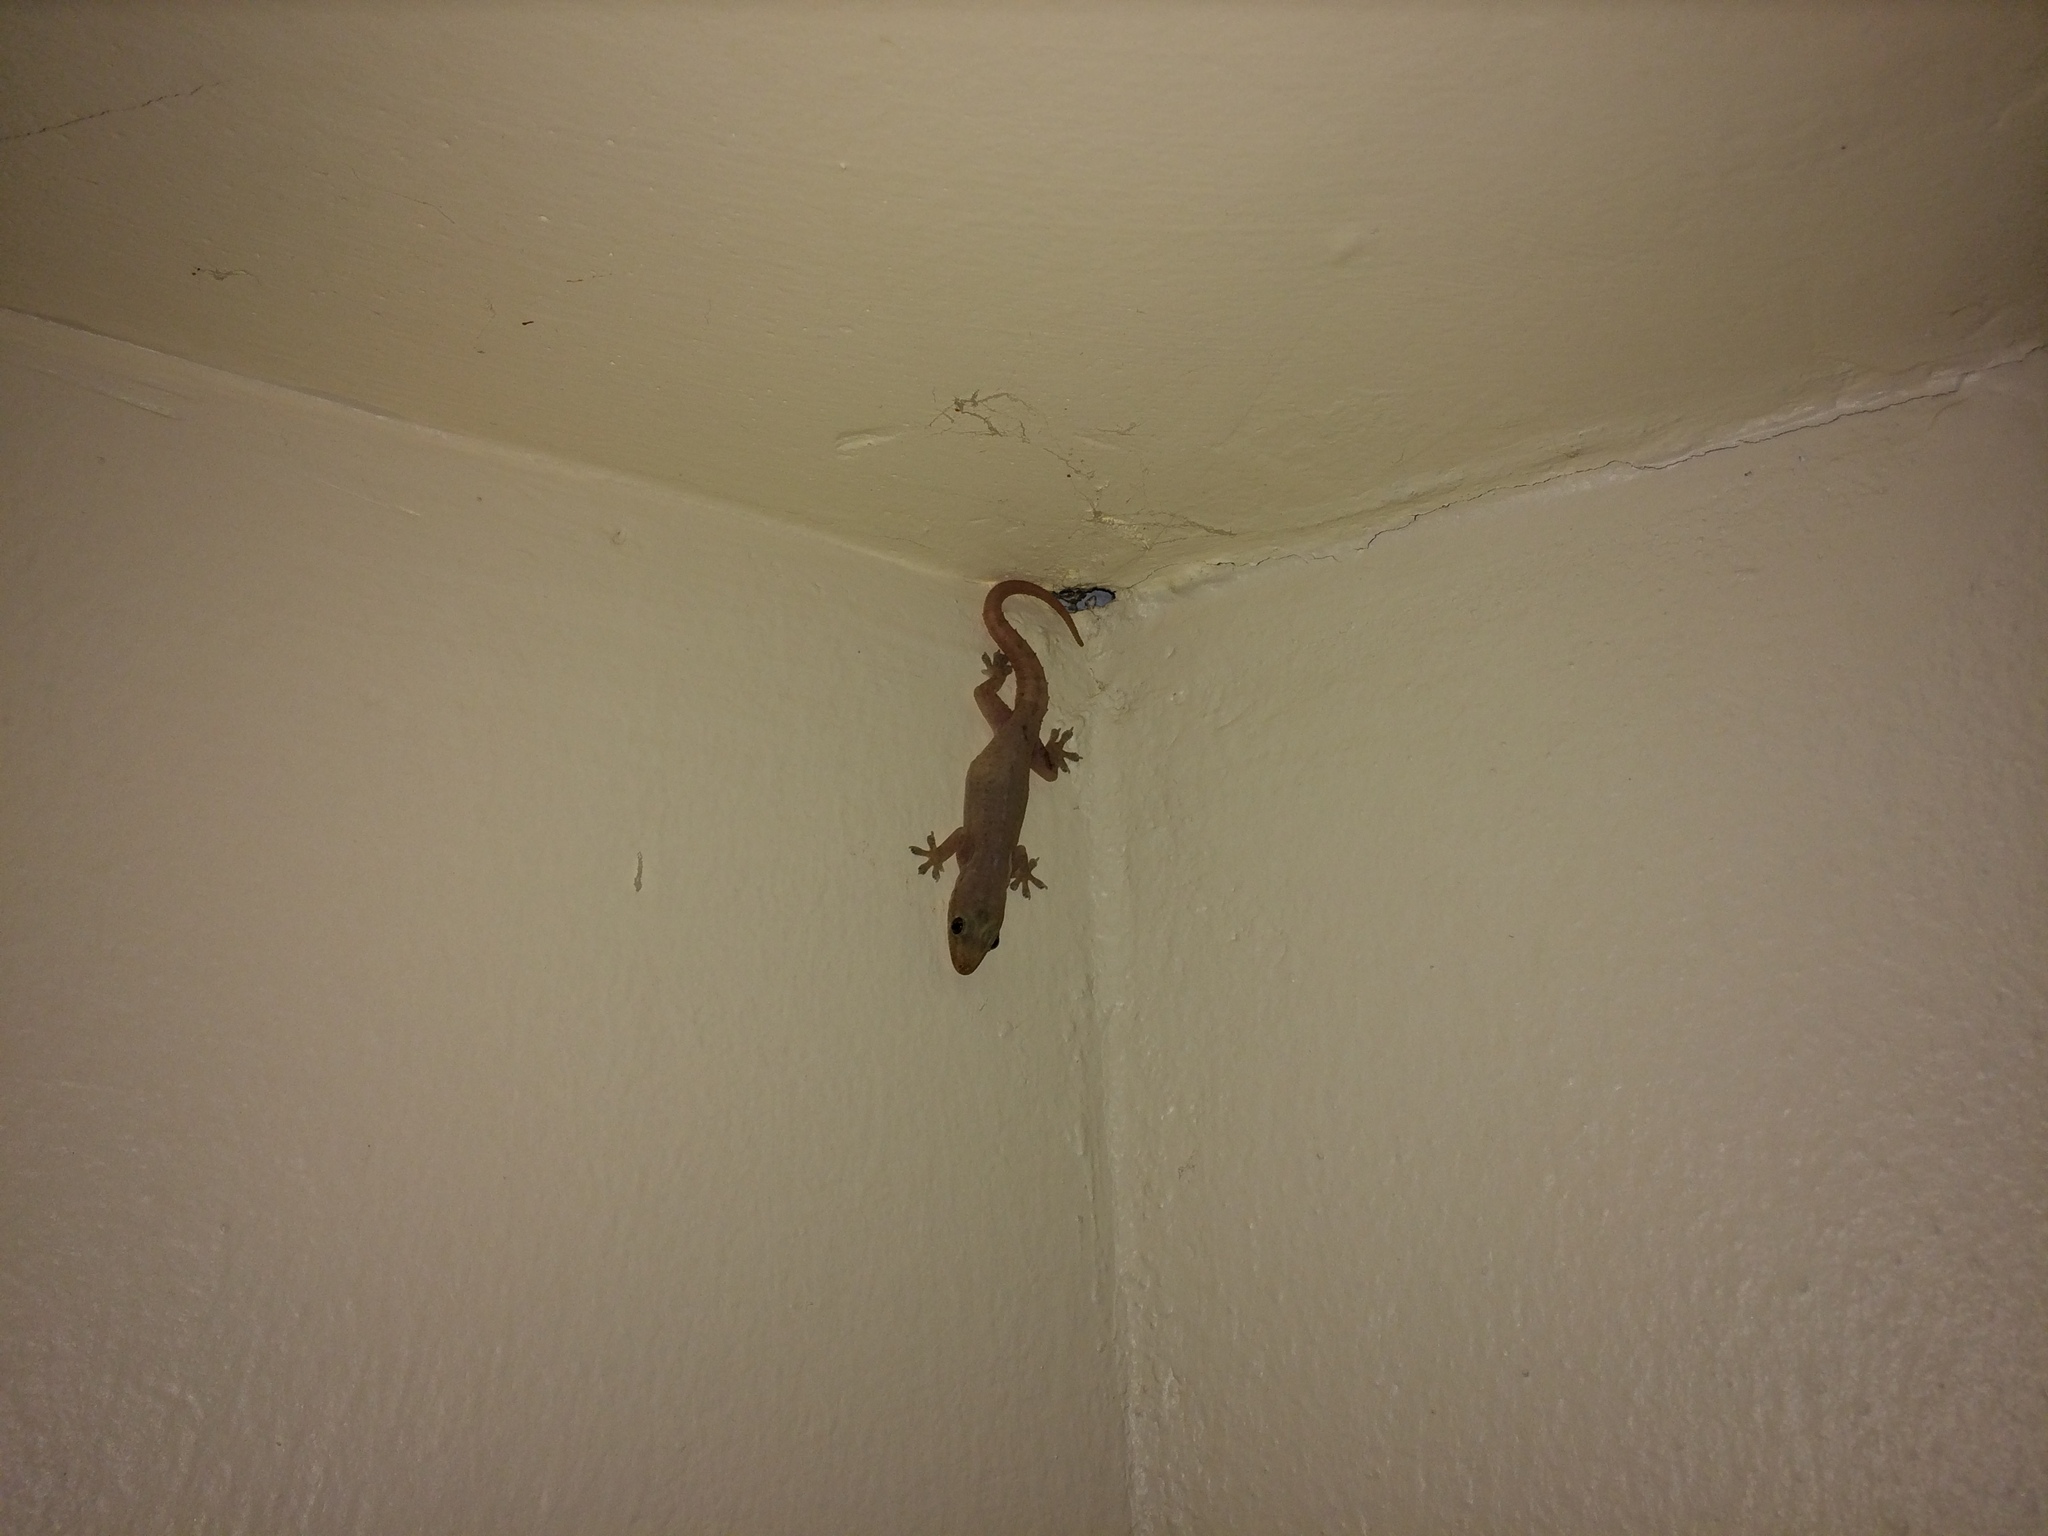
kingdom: Animalia
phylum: Chordata
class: Squamata
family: Gekkonidae
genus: Hemidactylus
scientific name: Hemidactylus frenatus
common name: Common house gecko
